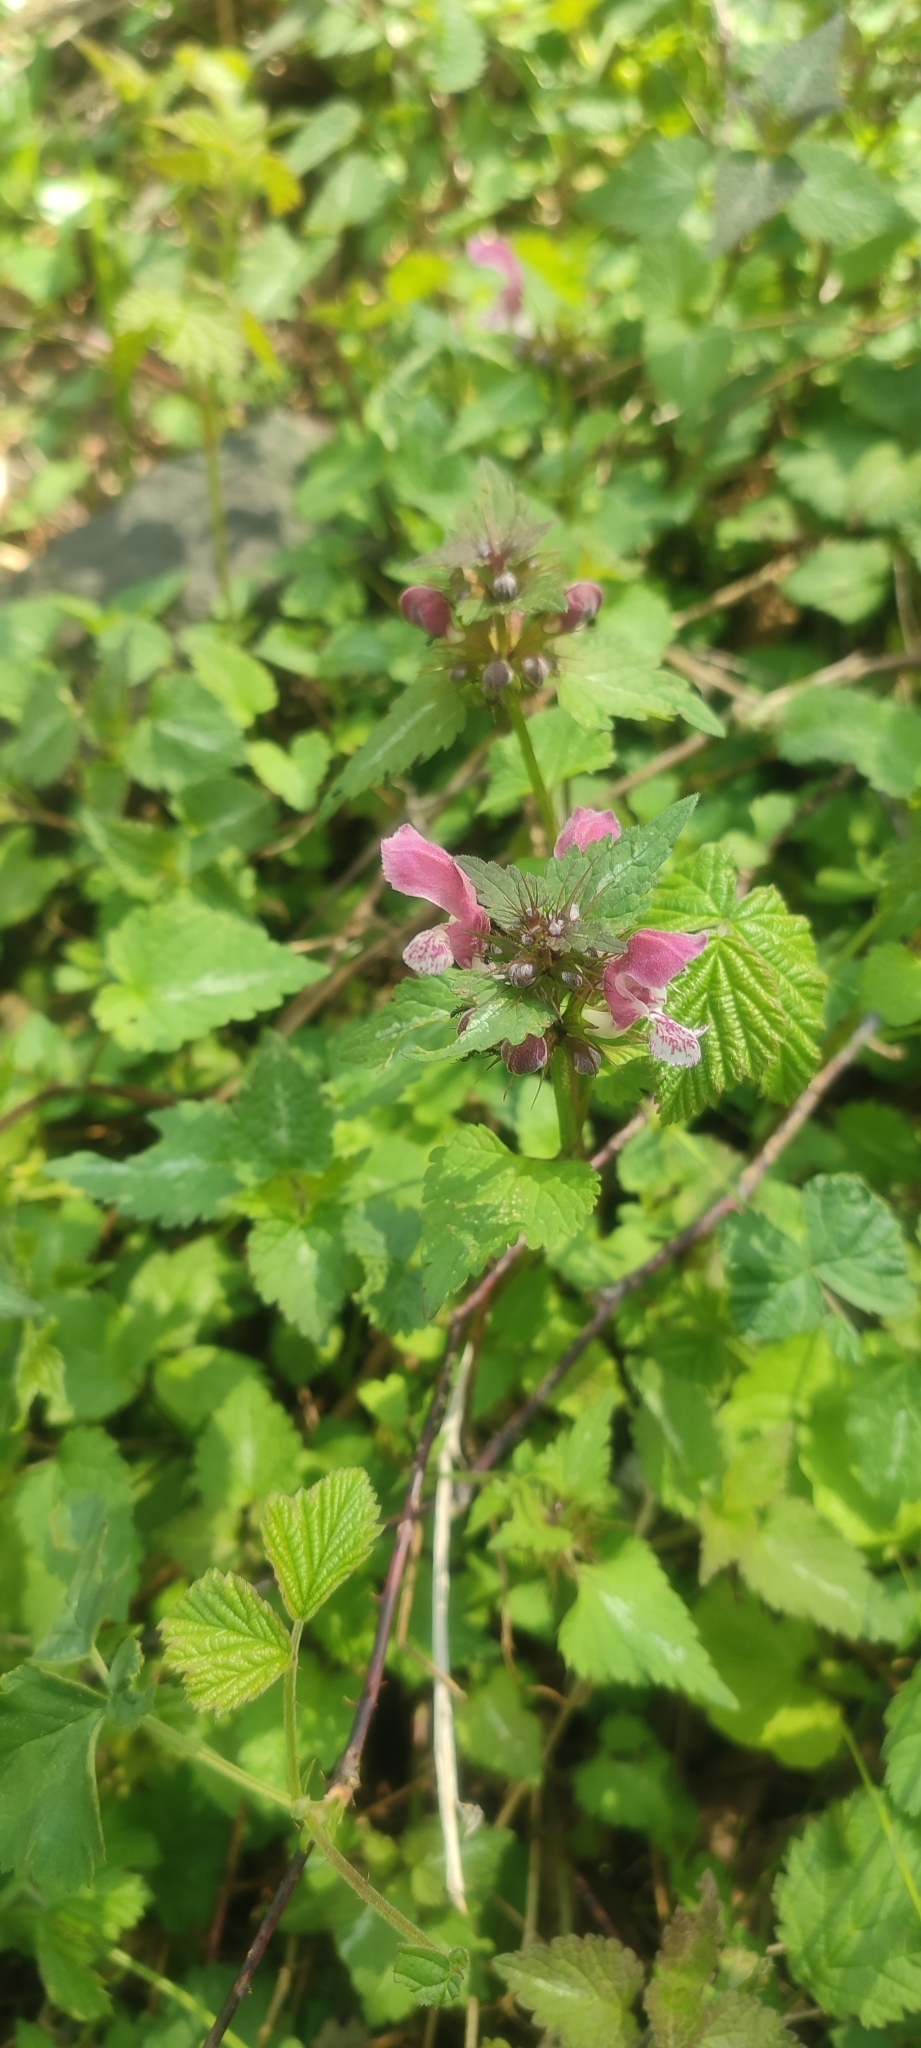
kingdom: Plantae
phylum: Tracheophyta
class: Magnoliopsida
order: Lamiales
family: Lamiaceae
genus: Lamium
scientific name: Lamium maculatum
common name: Spotted dead-nettle
